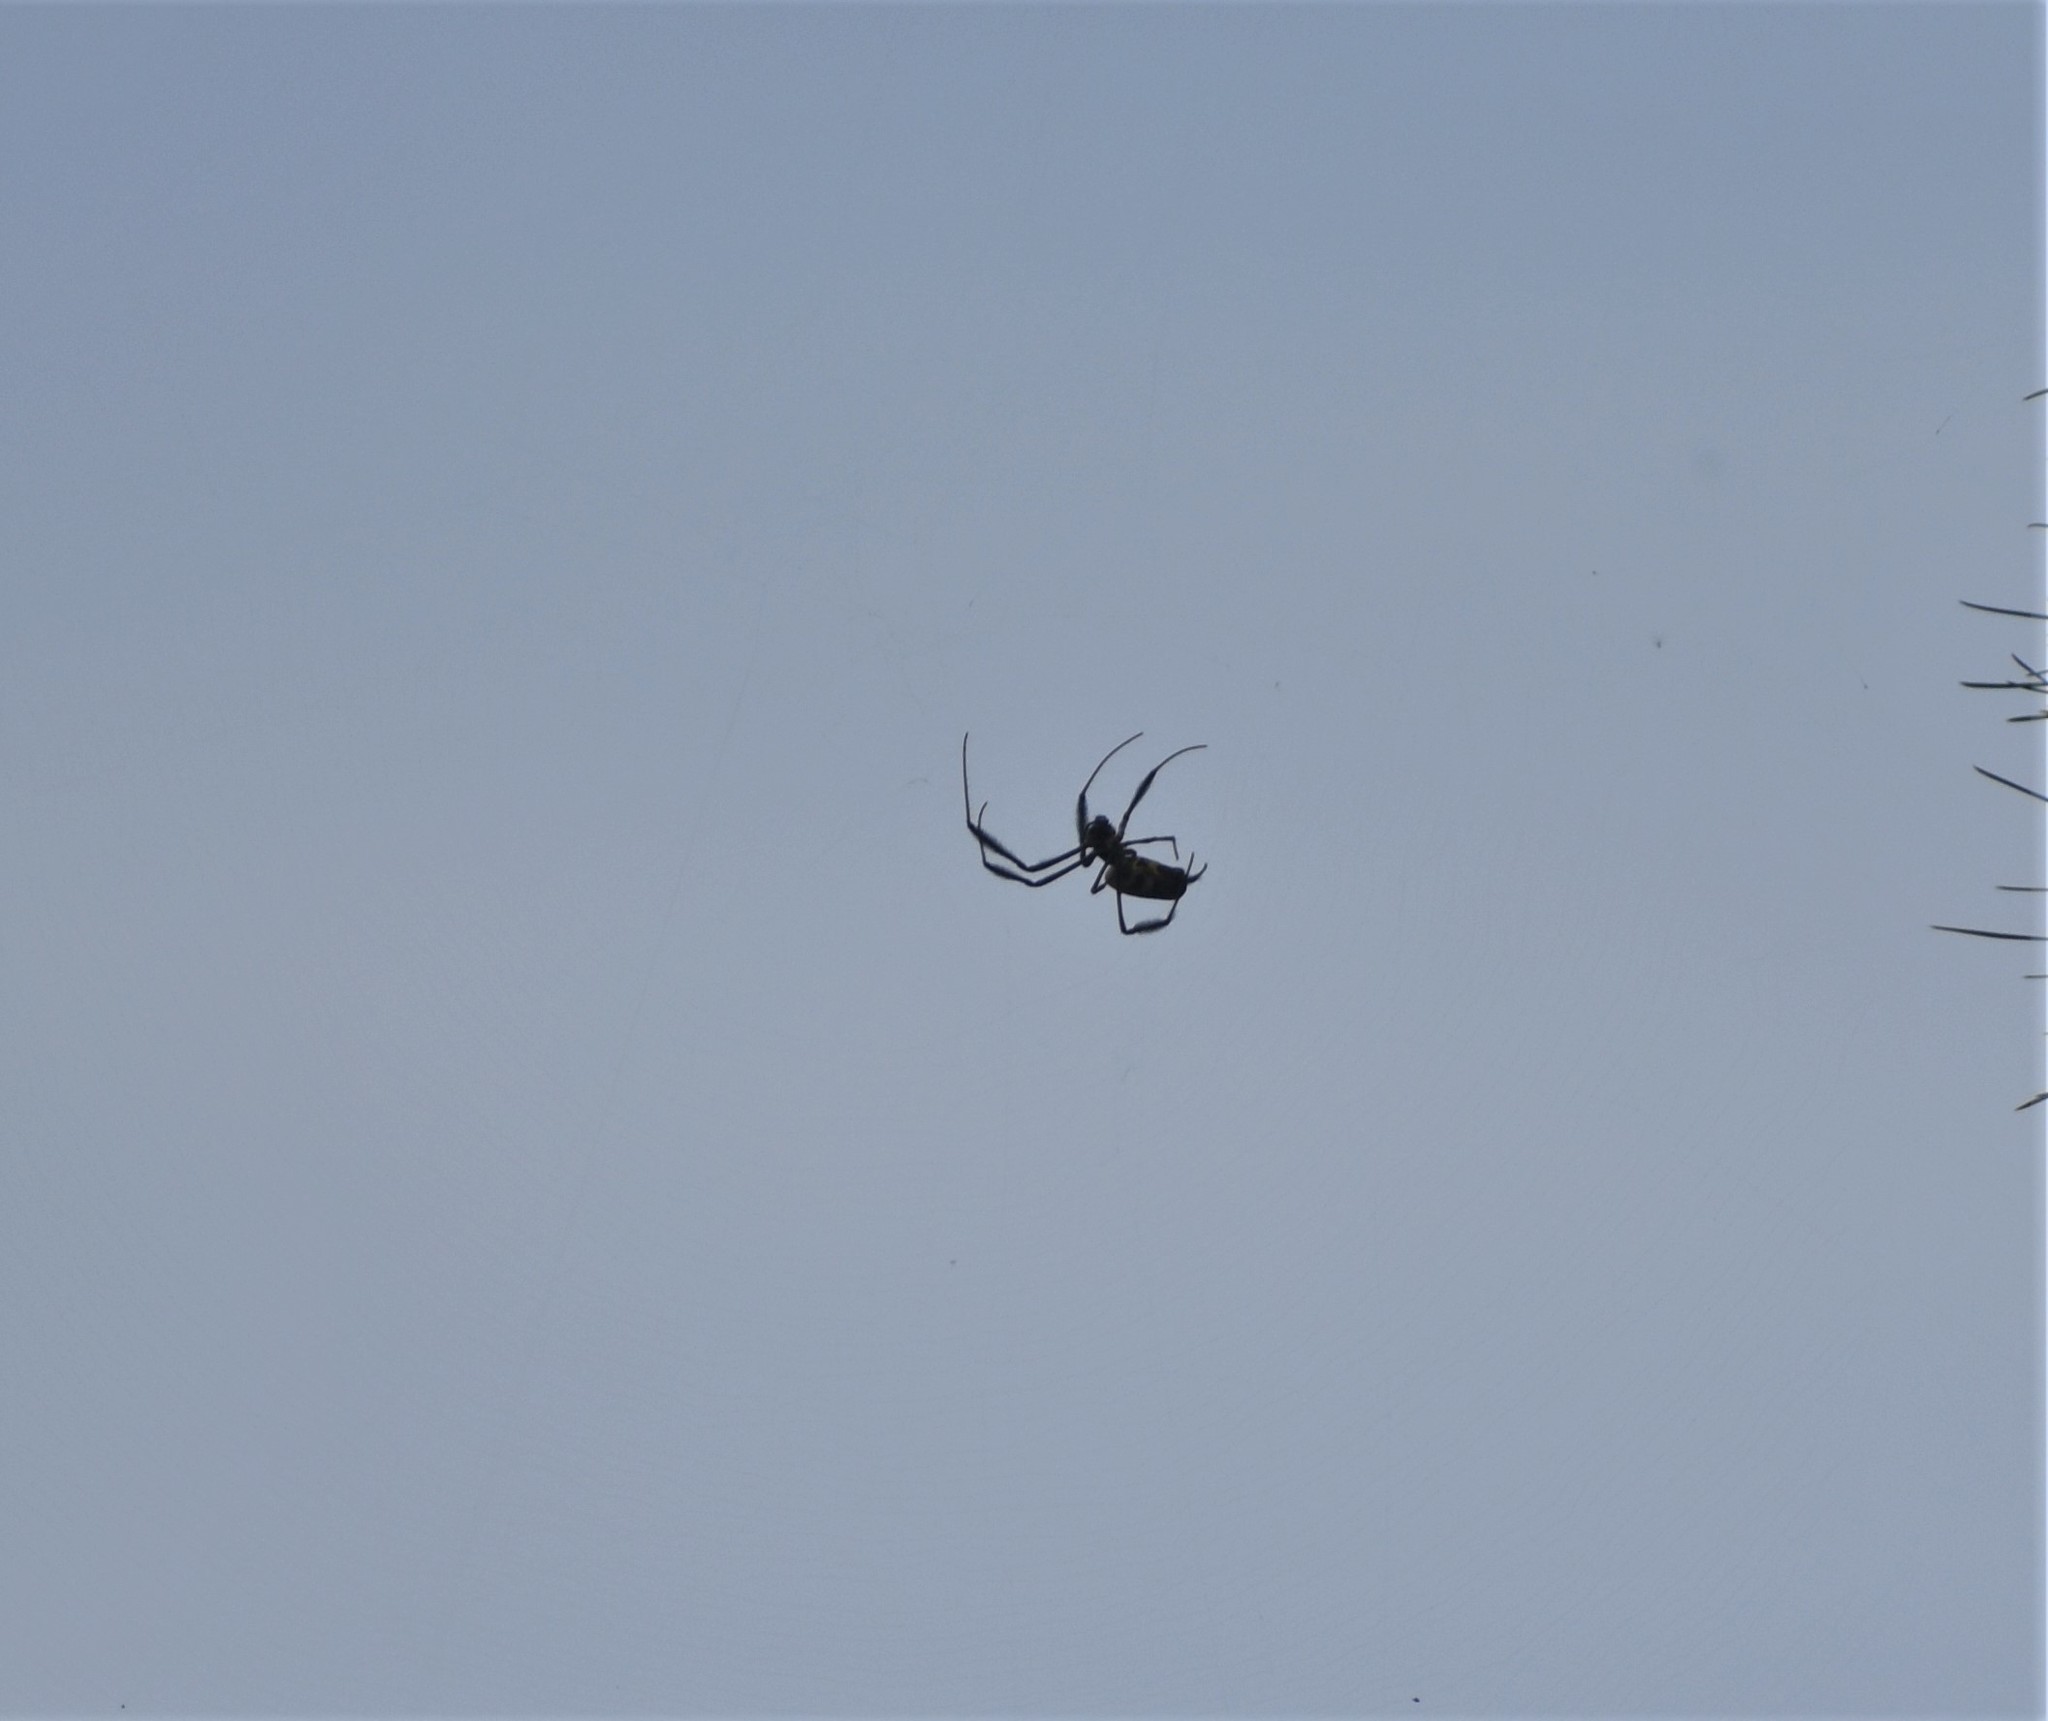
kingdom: Animalia
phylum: Arthropoda
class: Arachnida
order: Araneae
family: Araneidae
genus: Trichonephila
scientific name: Trichonephila fenestrata
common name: Hairy golden orb weaver
